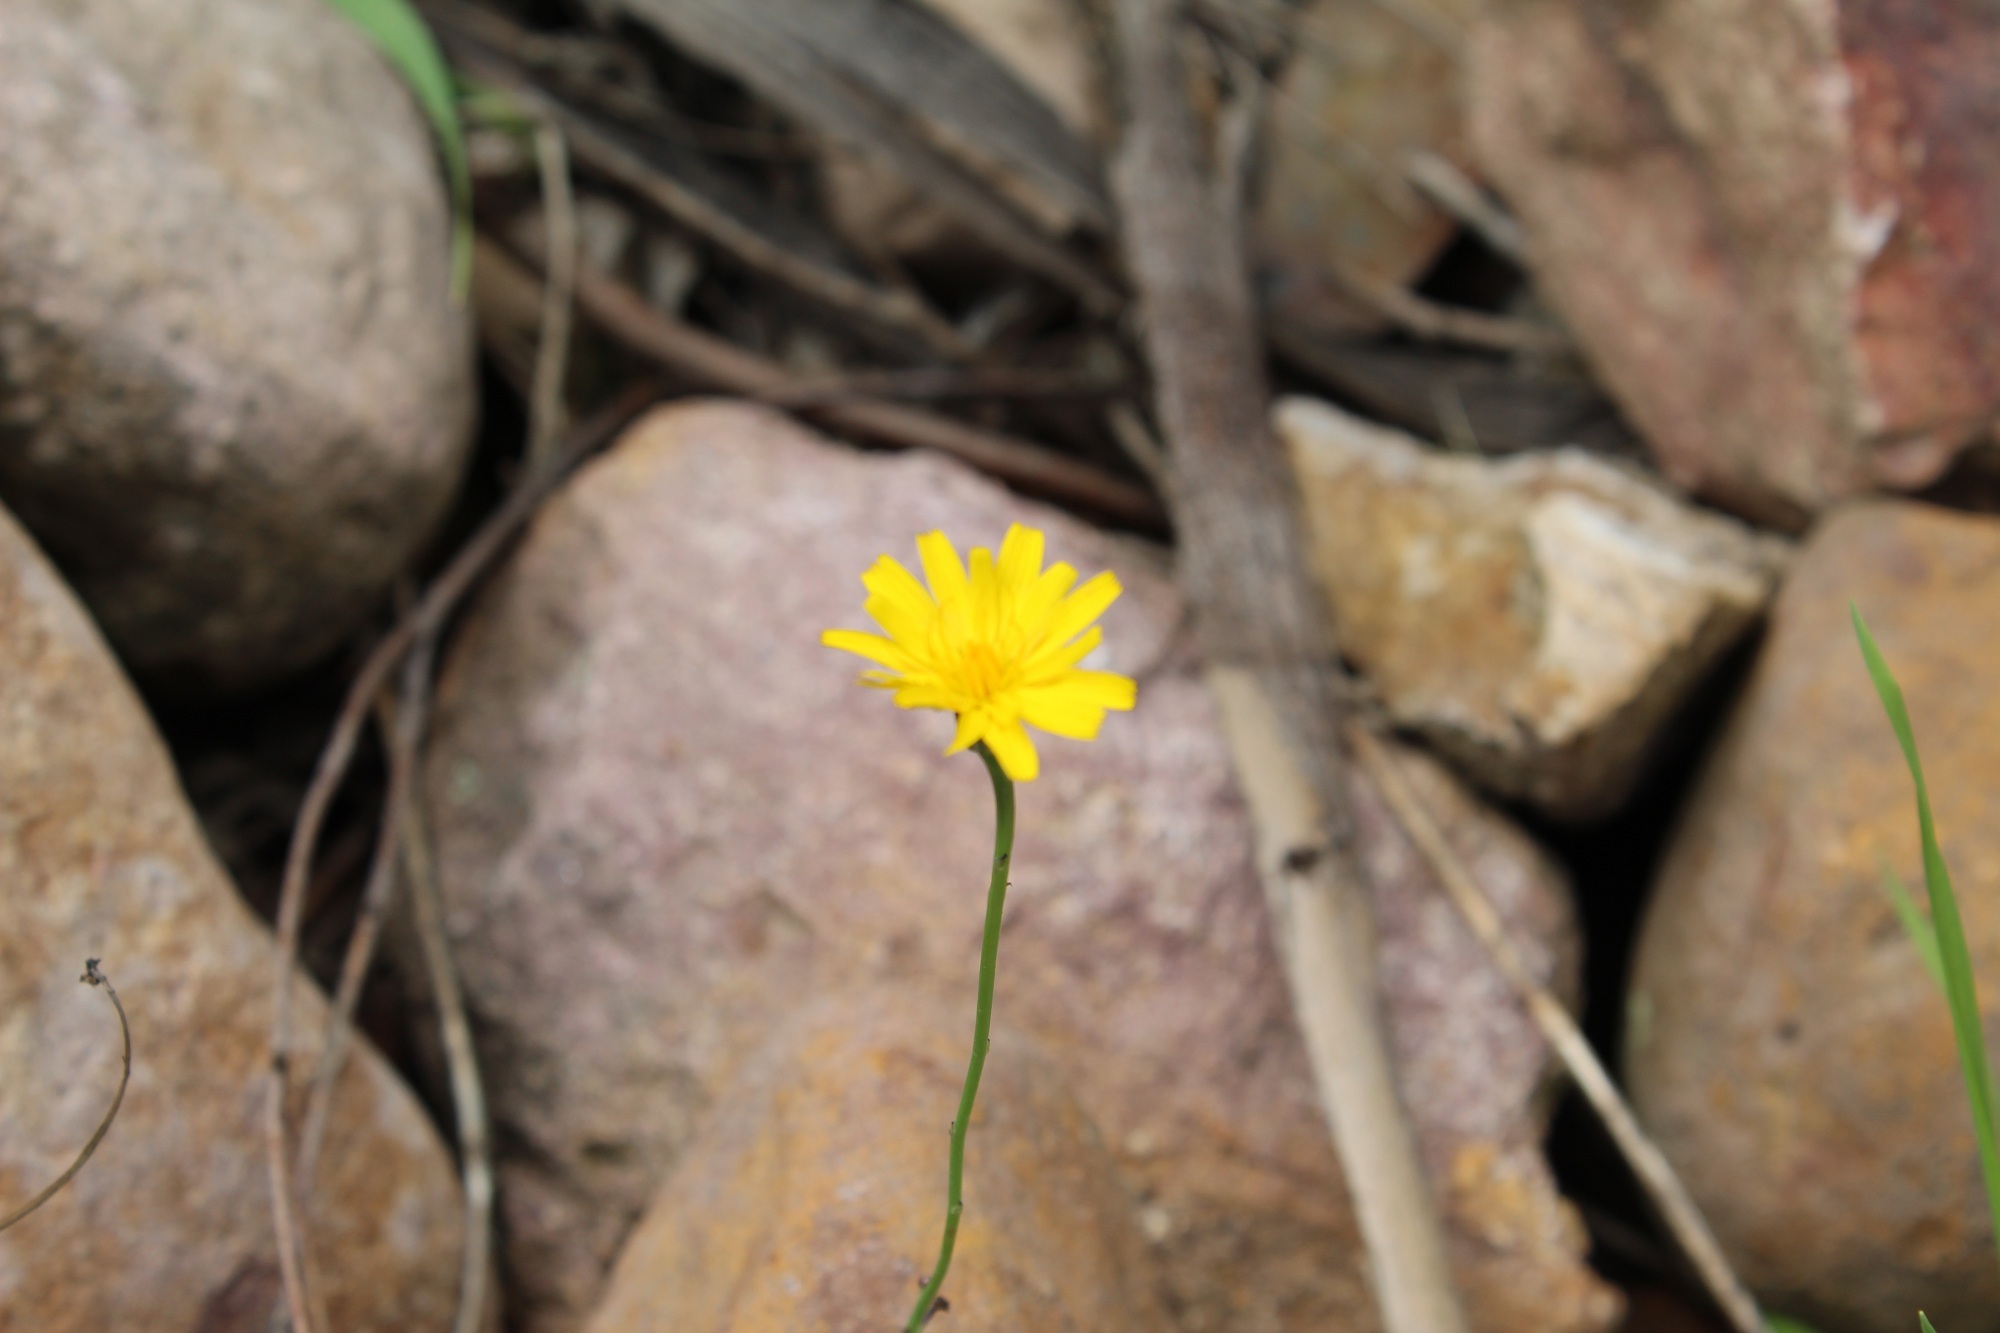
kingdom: Plantae
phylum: Tracheophyta
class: Magnoliopsida
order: Asterales
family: Asteraceae
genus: Hypochaeris
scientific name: Hypochaeris radicata
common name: Flatweed
